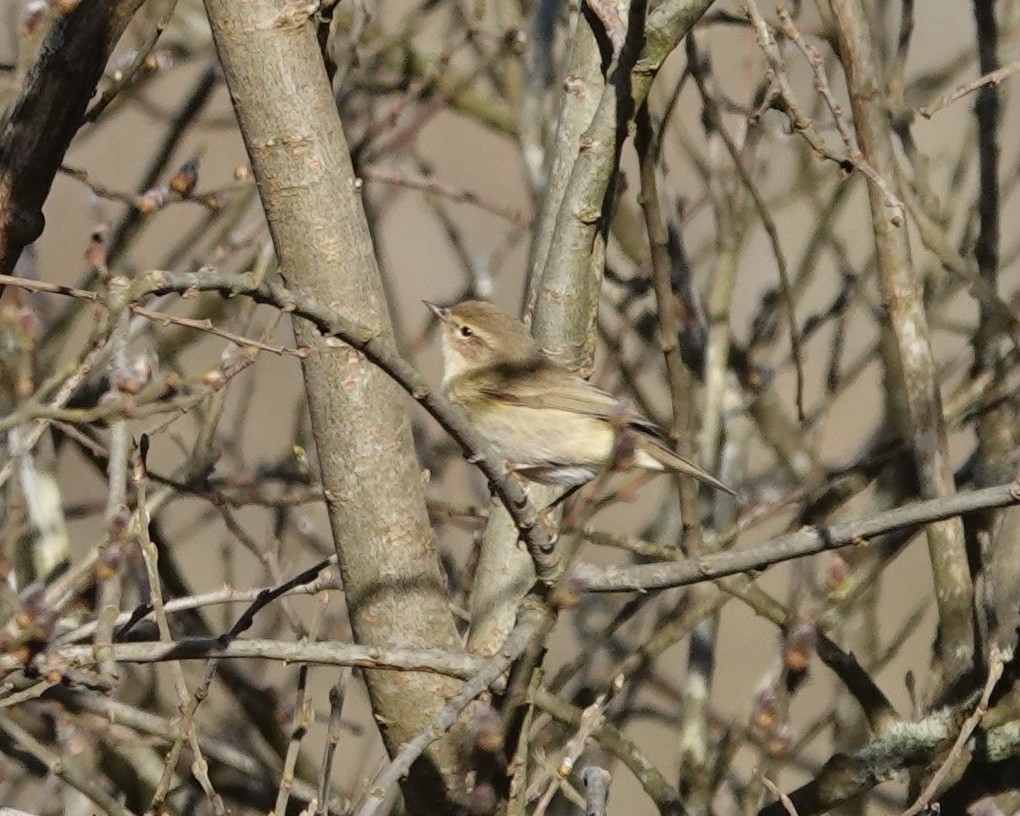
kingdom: Animalia
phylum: Chordata
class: Aves
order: Passeriformes
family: Phylloscopidae
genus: Phylloscopus
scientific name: Phylloscopus collybita
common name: Common chiffchaff
